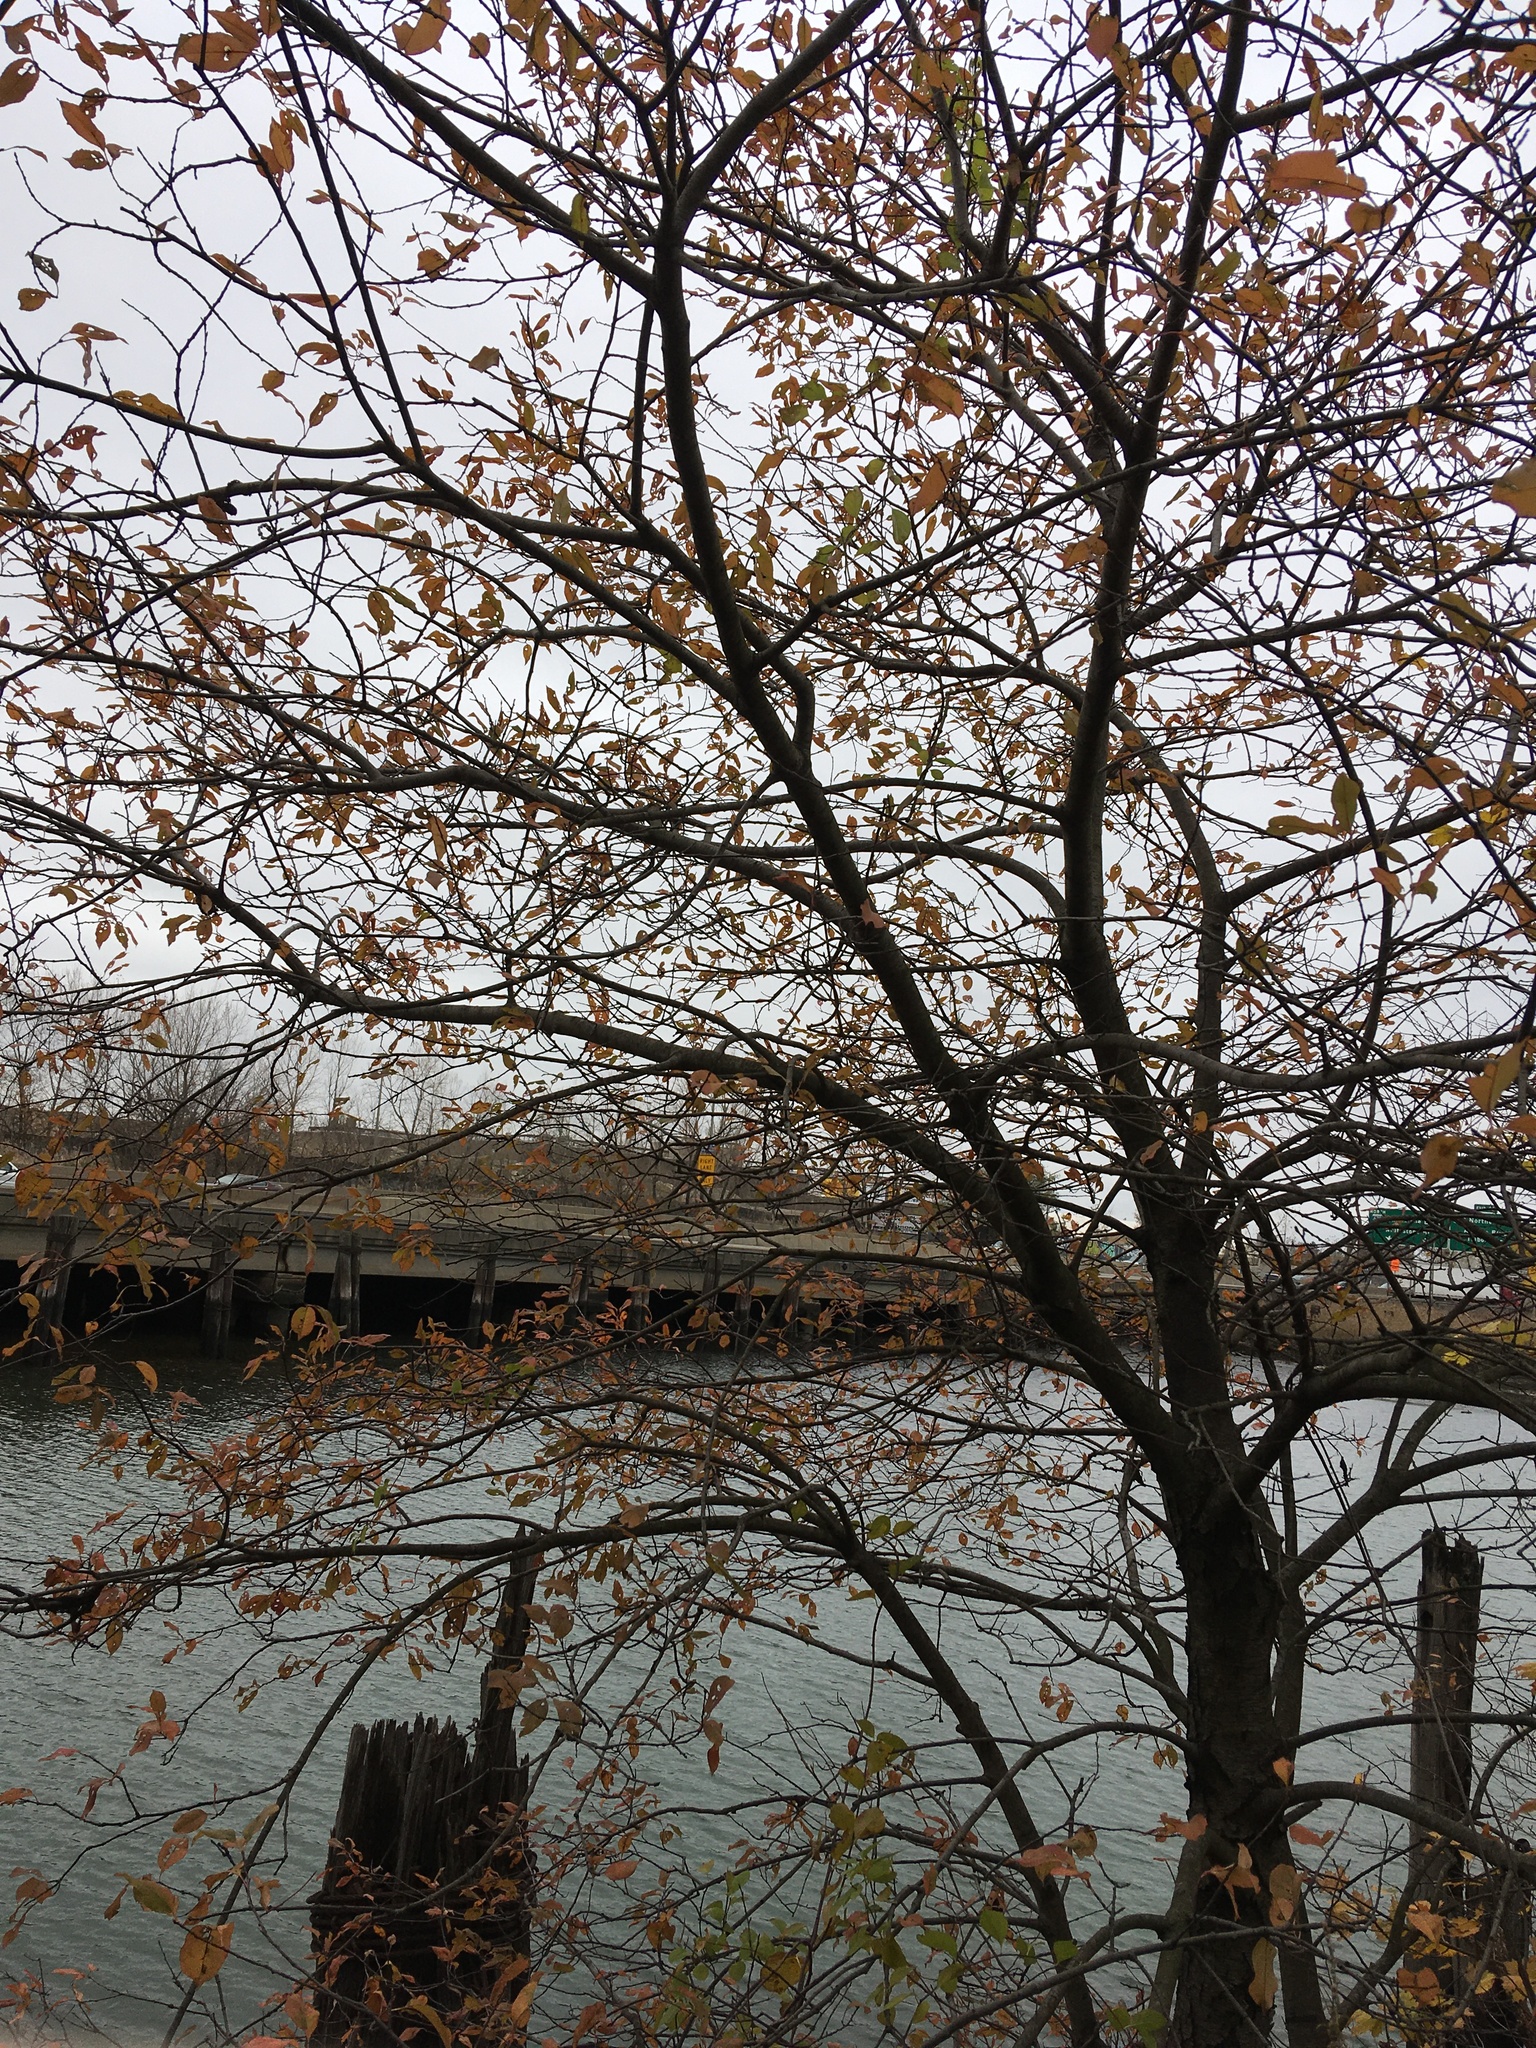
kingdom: Plantae
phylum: Tracheophyta
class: Magnoliopsida
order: Rosales
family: Rosaceae
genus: Prunus
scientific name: Prunus serotina
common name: Black cherry
